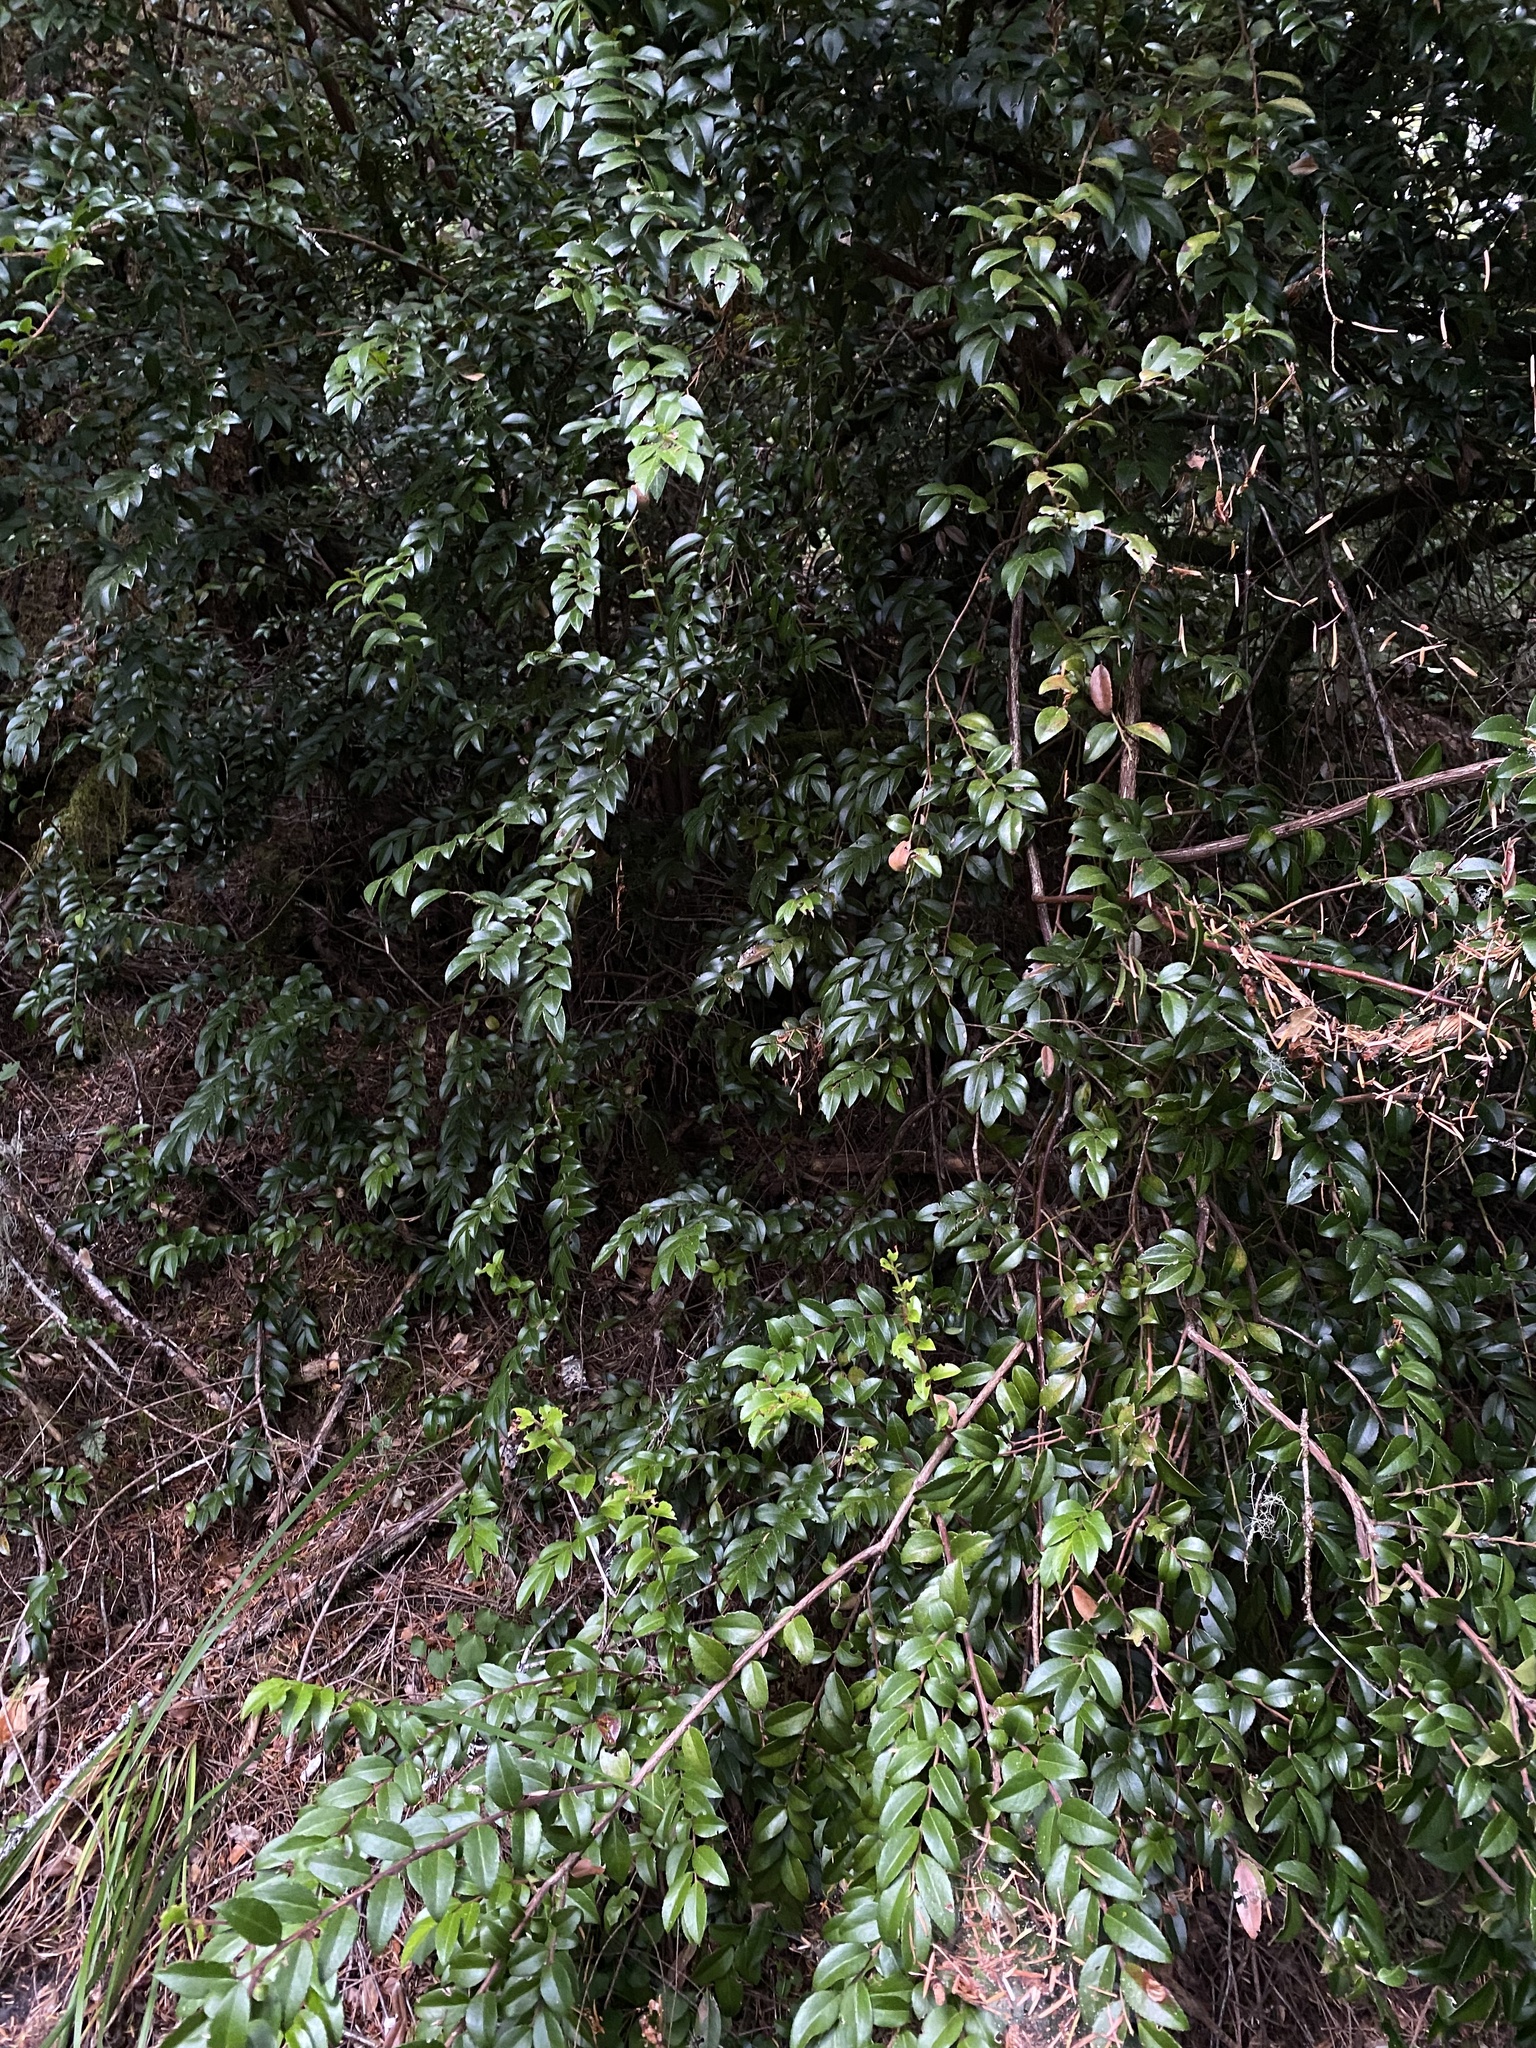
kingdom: Plantae
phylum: Tracheophyta
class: Magnoliopsida
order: Ericales
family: Ericaceae
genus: Vaccinium
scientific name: Vaccinium ovatum
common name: California-huckleberry
